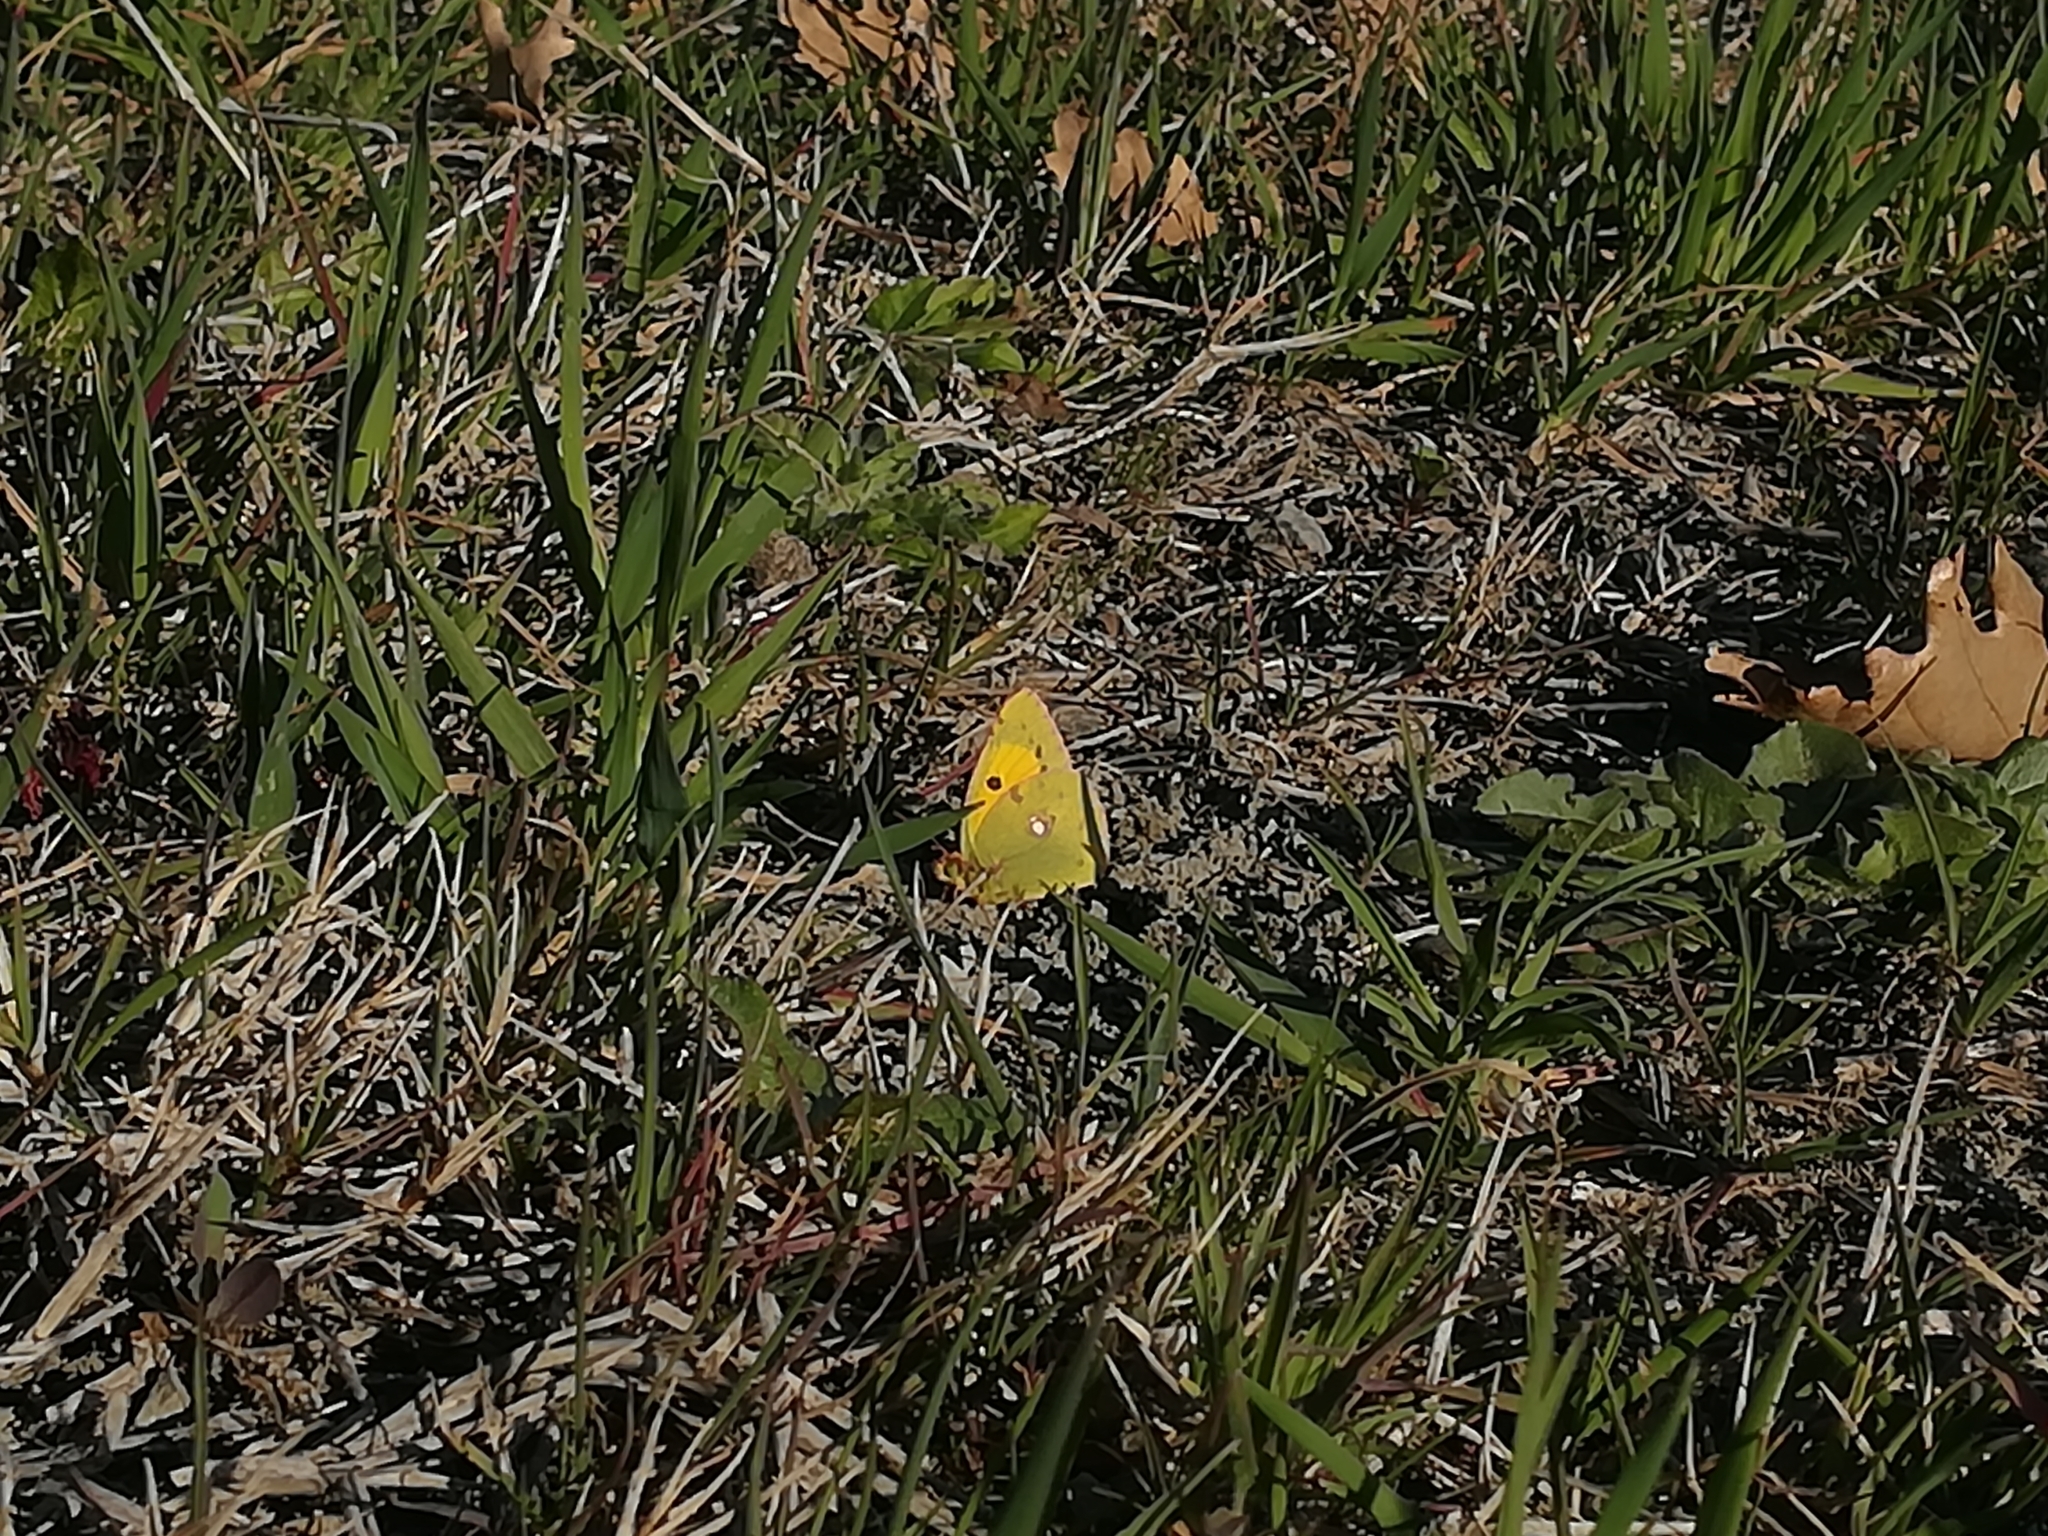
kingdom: Animalia
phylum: Arthropoda
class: Insecta
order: Lepidoptera
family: Pieridae
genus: Colias
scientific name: Colias croceus
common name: Clouded yellow
